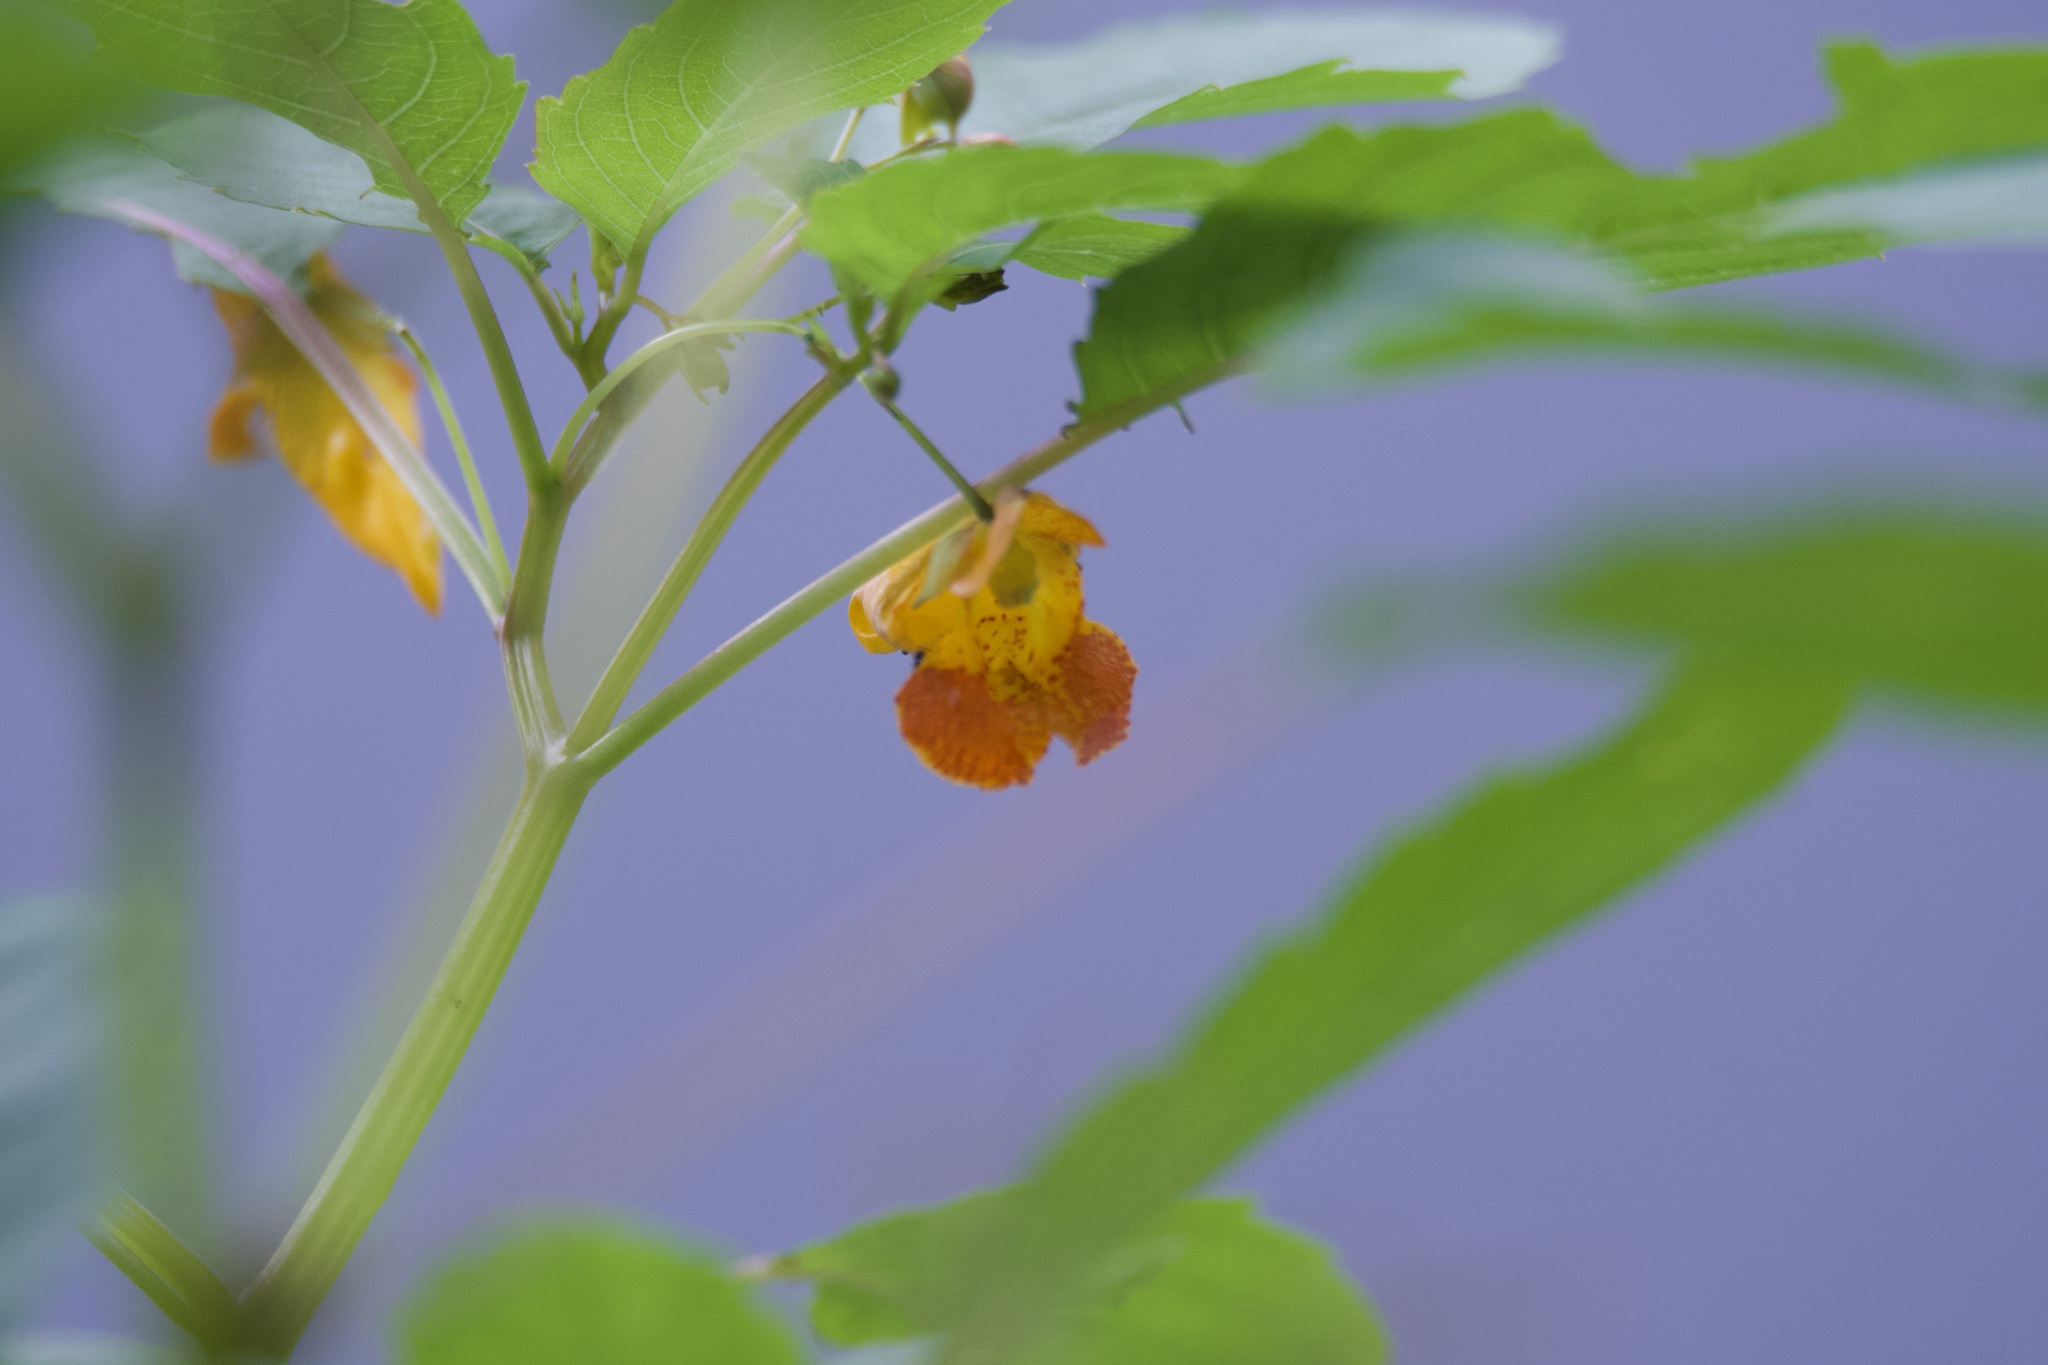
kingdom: Plantae
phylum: Tracheophyta
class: Magnoliopsida
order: Ericales
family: Balsaminaceae
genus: Impatiens
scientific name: Impatiens capensis
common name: Orange balsam
